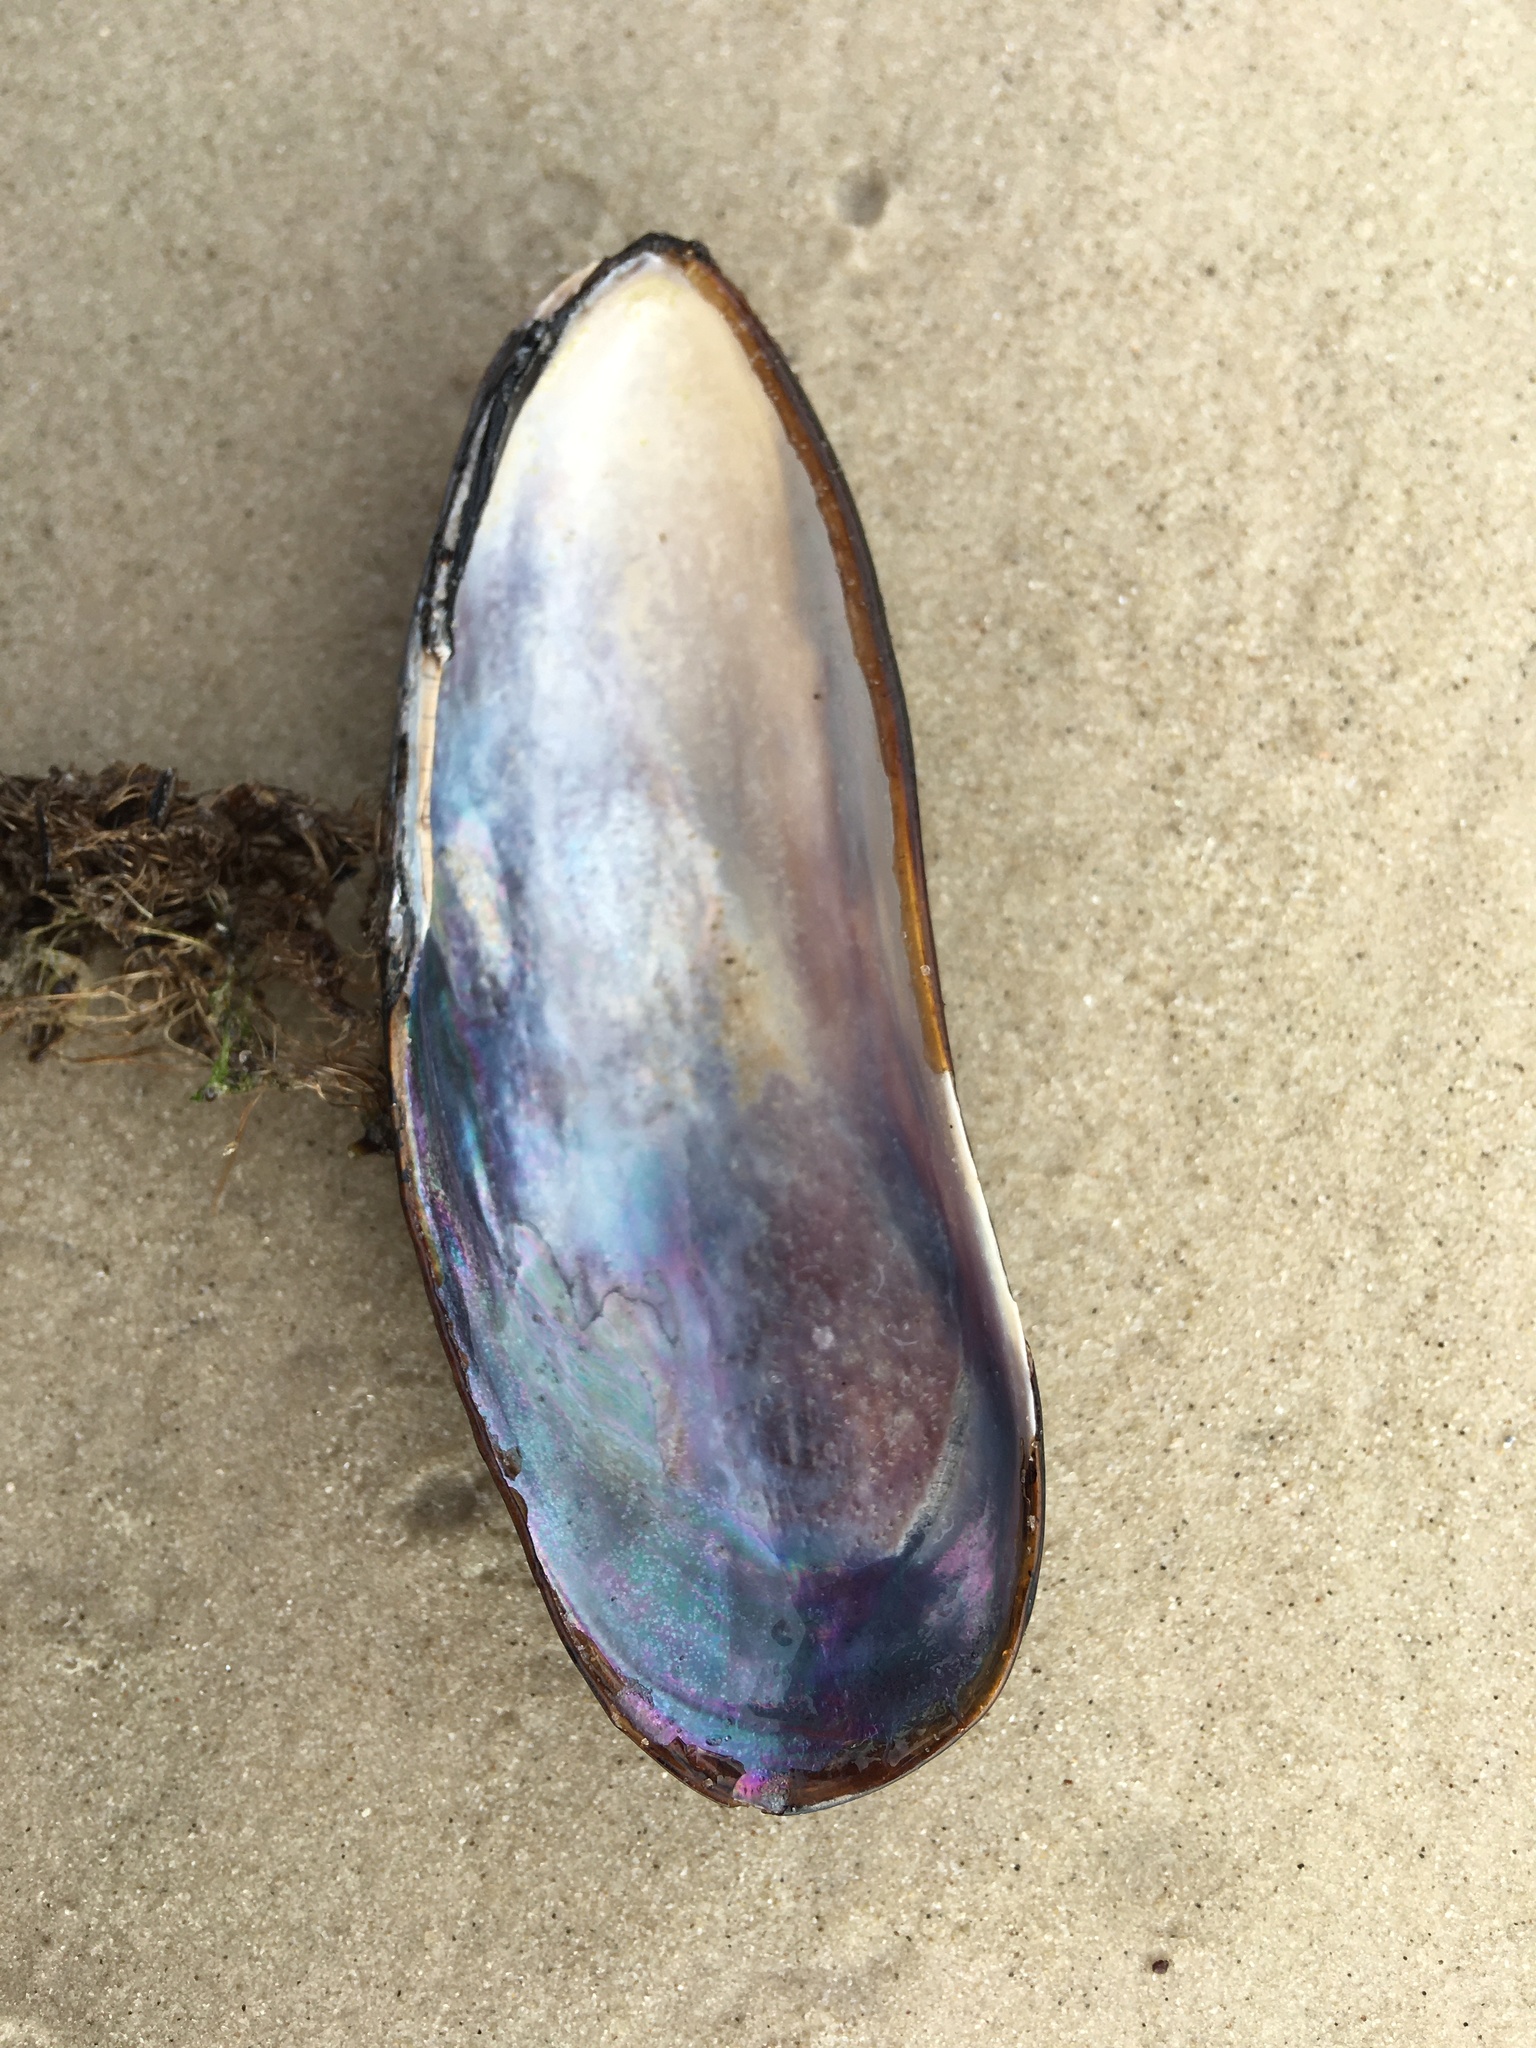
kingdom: Animalia
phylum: Mollusca
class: Bivalvia
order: Mytilida
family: Mytilidae
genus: Mytella
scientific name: Mytella strigata
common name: Charru mussel
